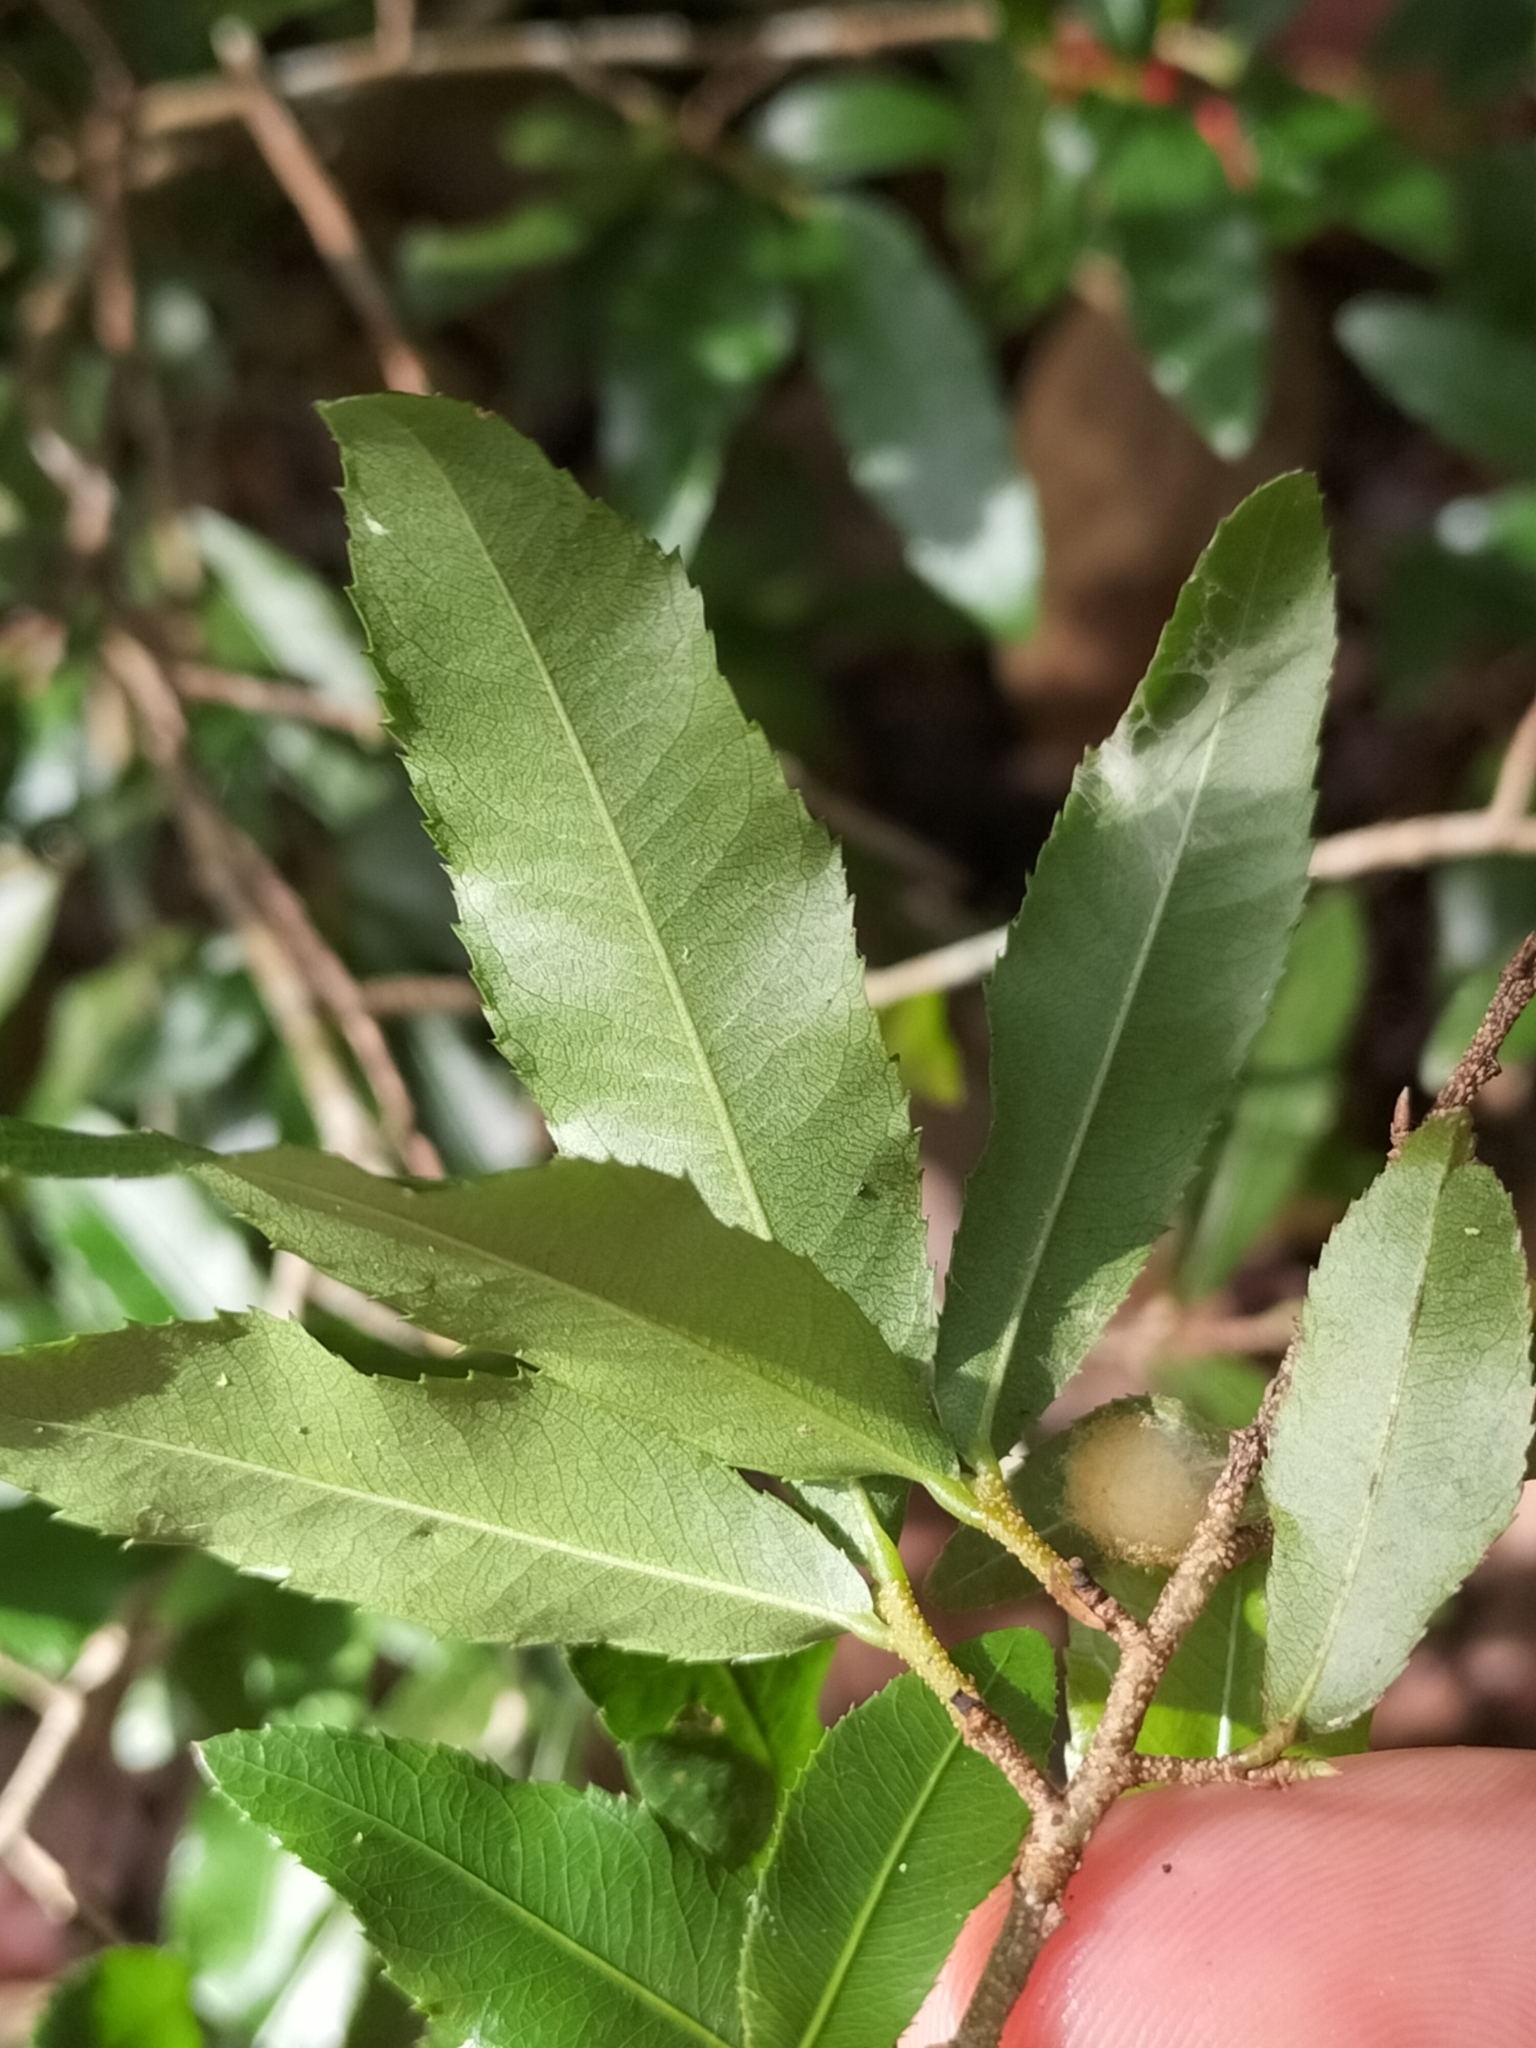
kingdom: Plantae
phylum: Tracheophyta
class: Magnoliopsida
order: Malpighiales
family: Ochnaceae
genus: Ochna
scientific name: Ochna serrulata
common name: Mickey mouse plant
